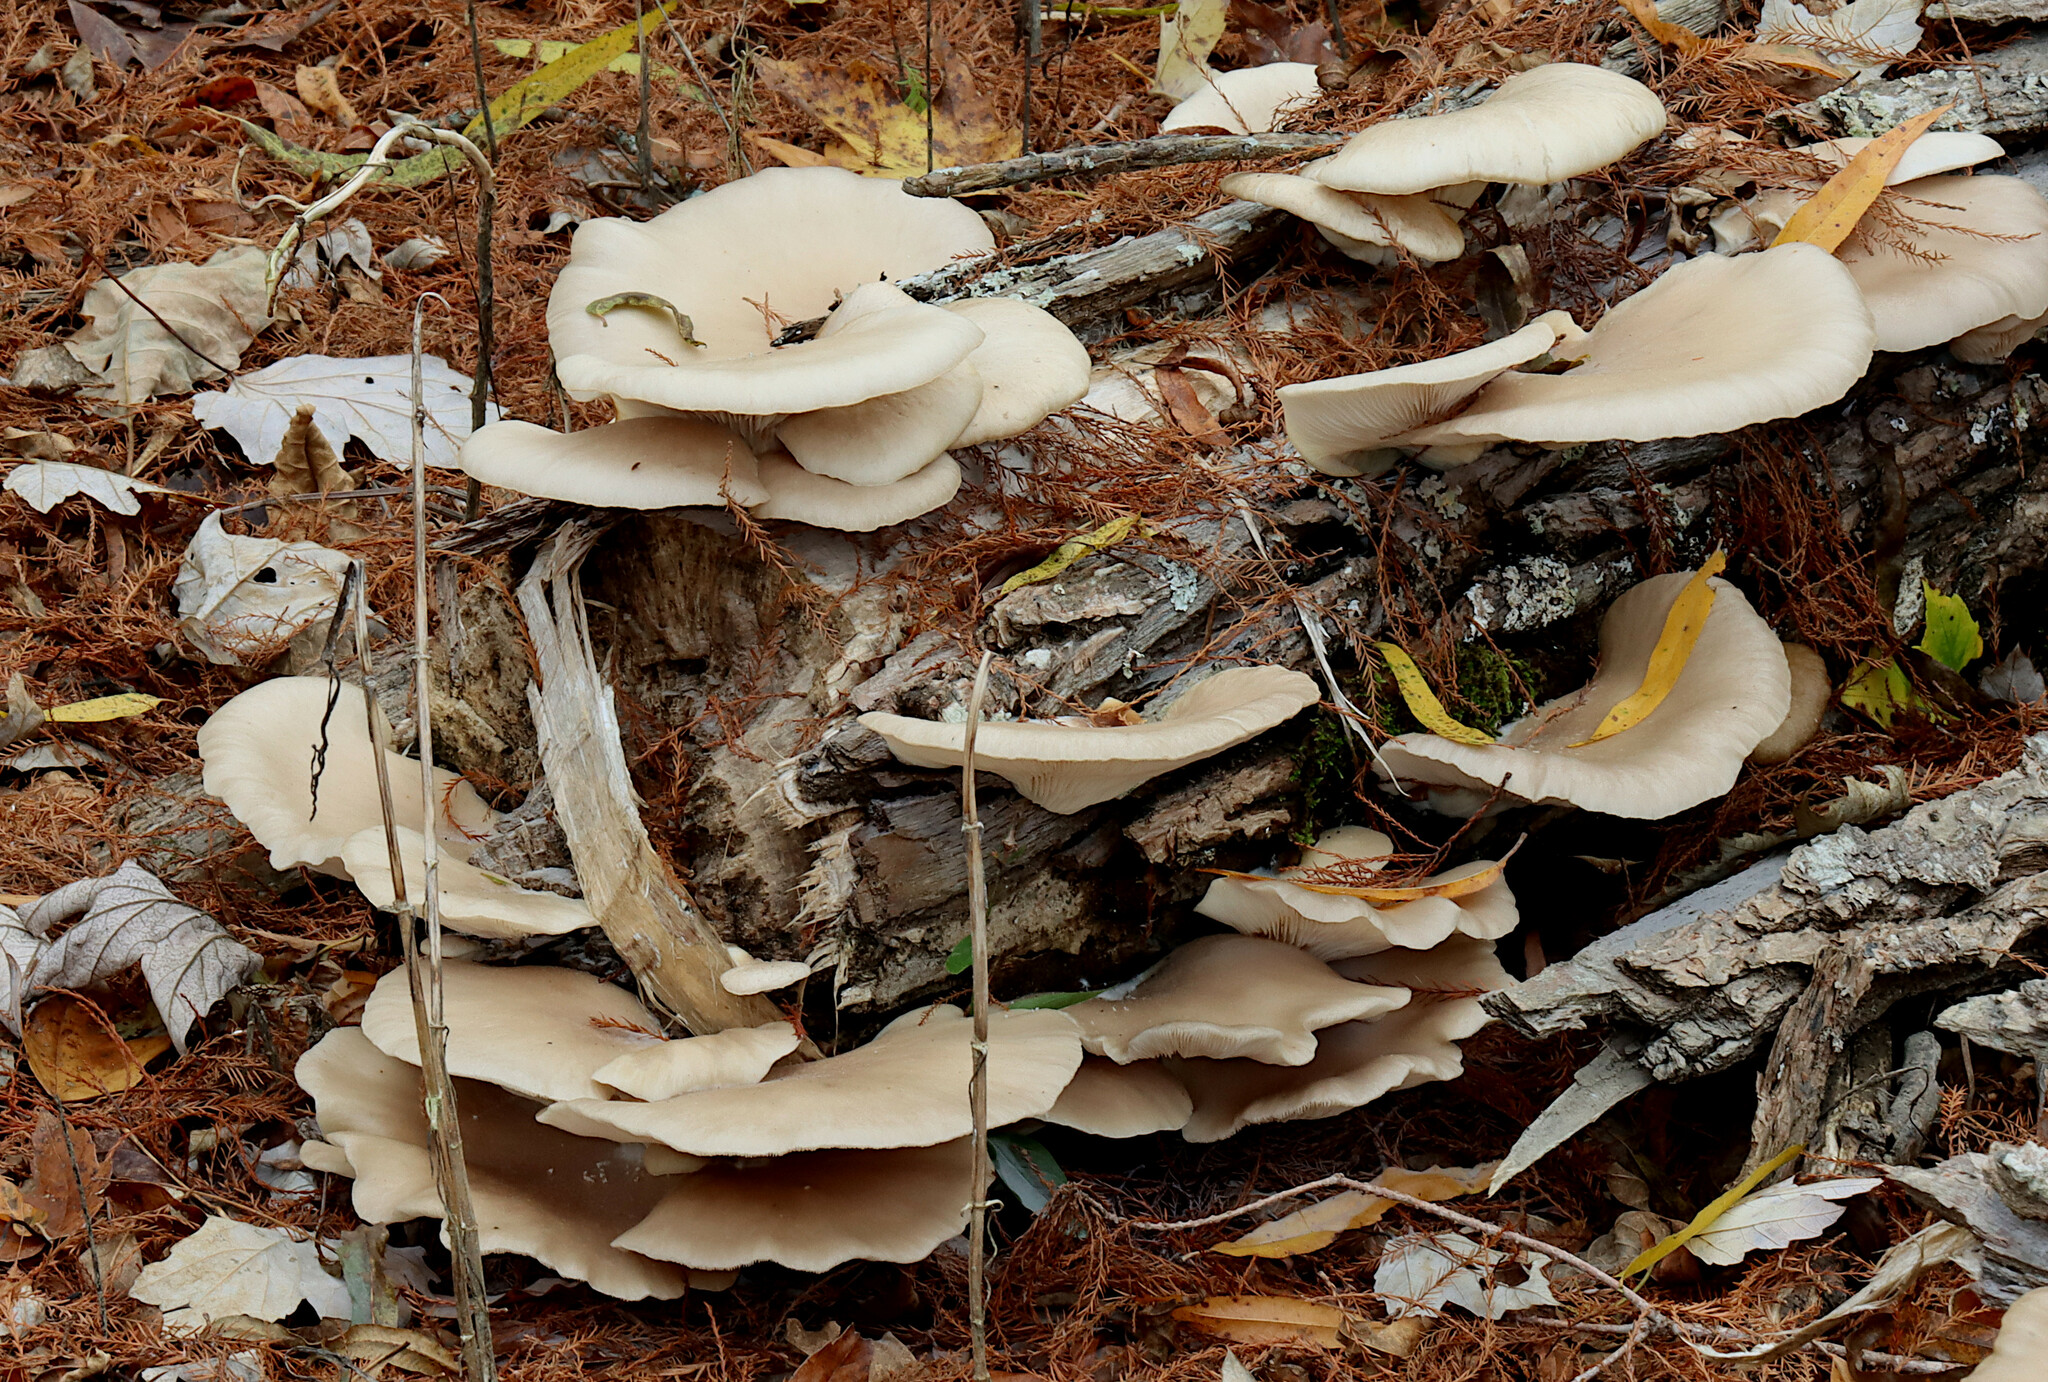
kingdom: Fungi
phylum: Basidiomycota
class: Agaricomycetes
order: Agaricales
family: Pleurotaceae
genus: Pleurotus
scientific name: Pleurotus ostreatus
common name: Oyster mushroom
